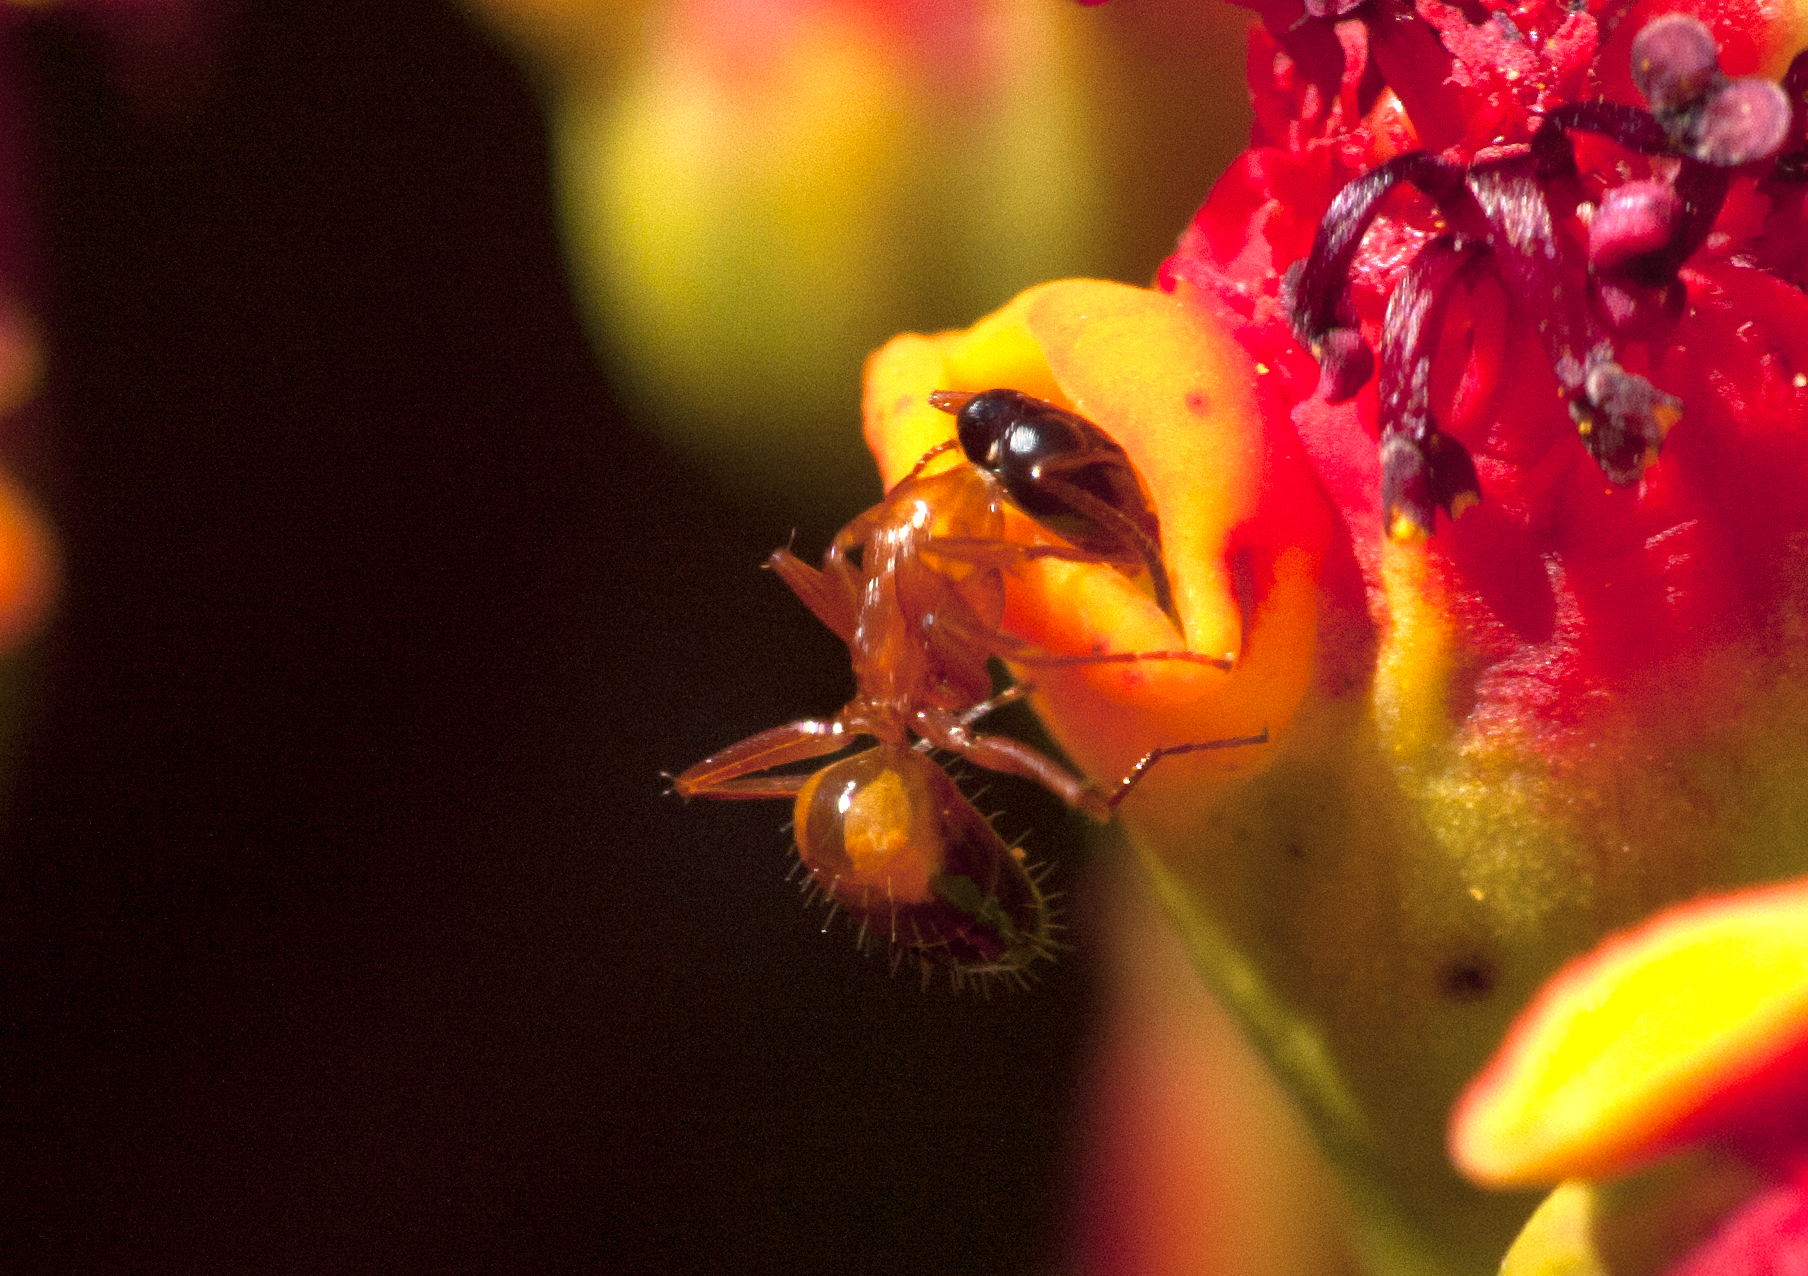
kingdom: Animalia
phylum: Arthropoda
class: Insecta
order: Hymenoptera
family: Formicidae
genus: Opisthopsis
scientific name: Opisthopsis rufithorax
